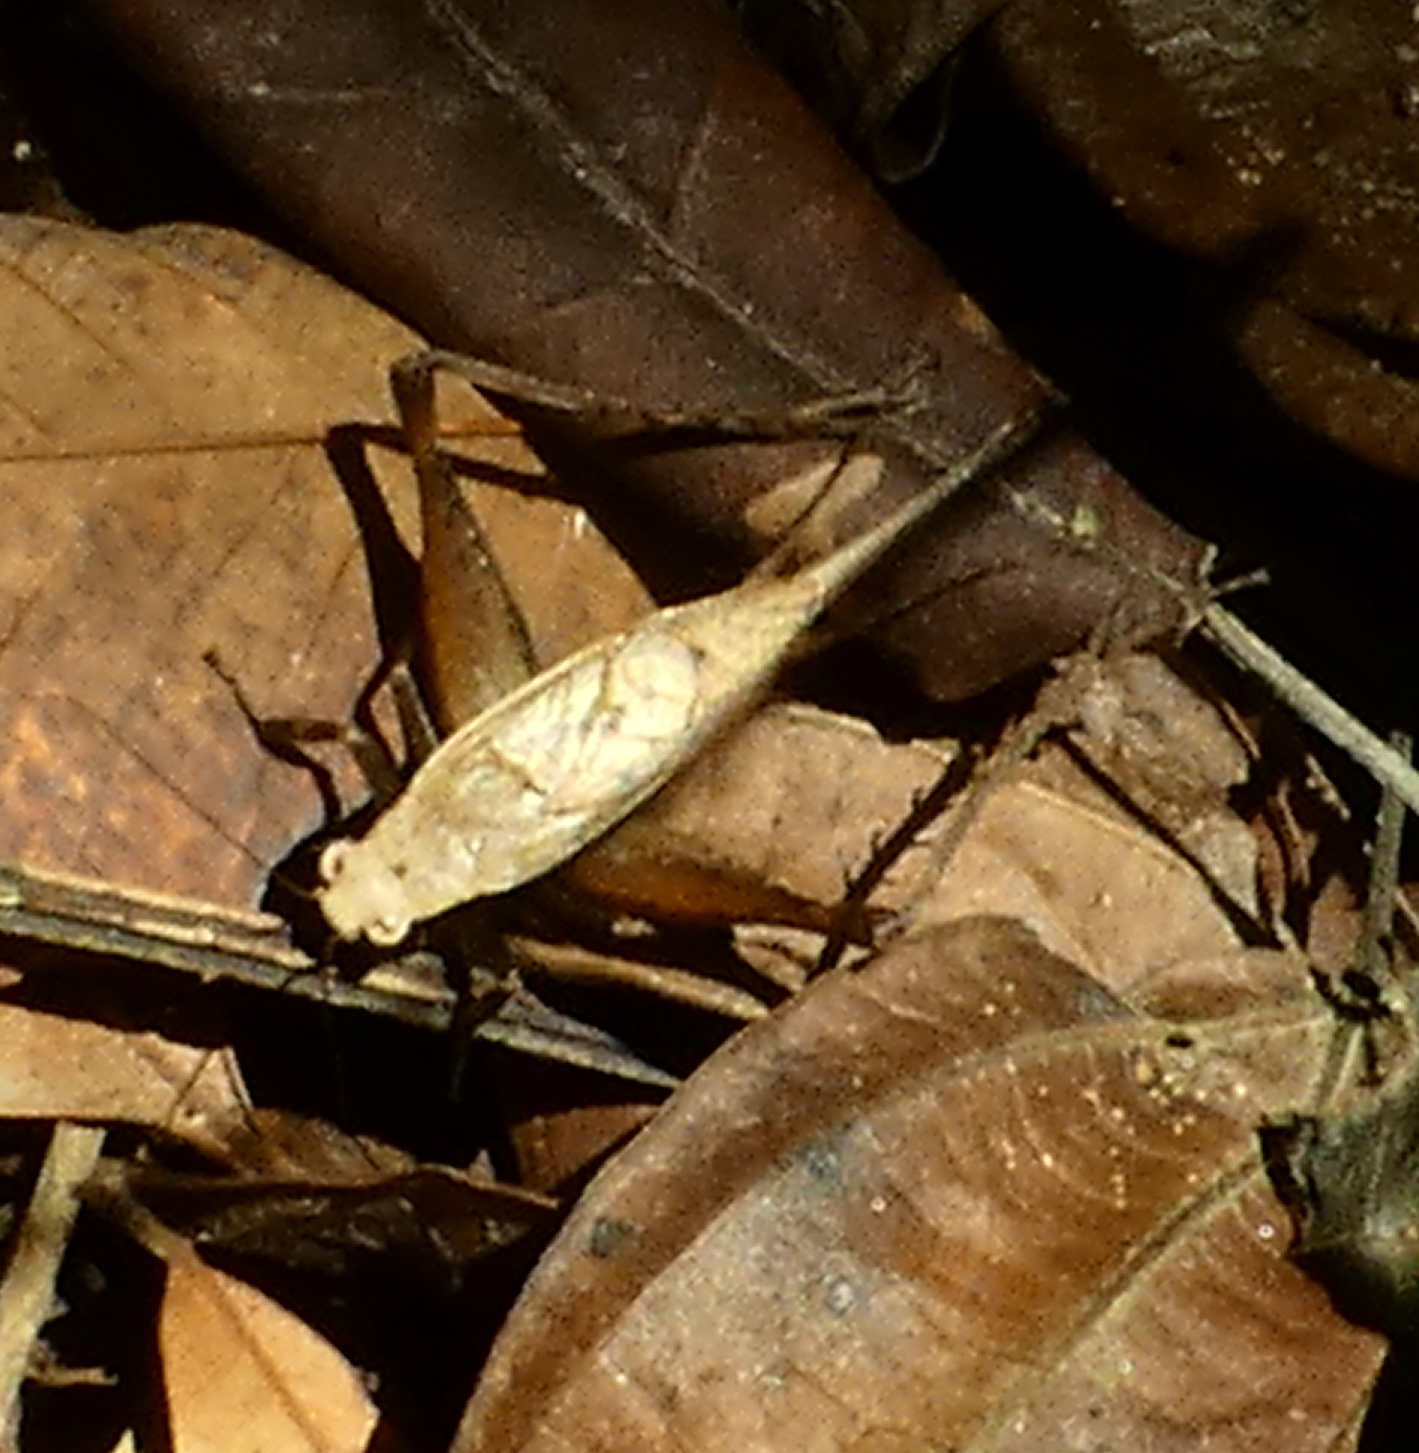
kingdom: Animalia
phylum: Arthropoda
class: Insecta
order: Orthoptera
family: Gryllidae
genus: Eneoptera
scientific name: Eneoptera surinamensis
